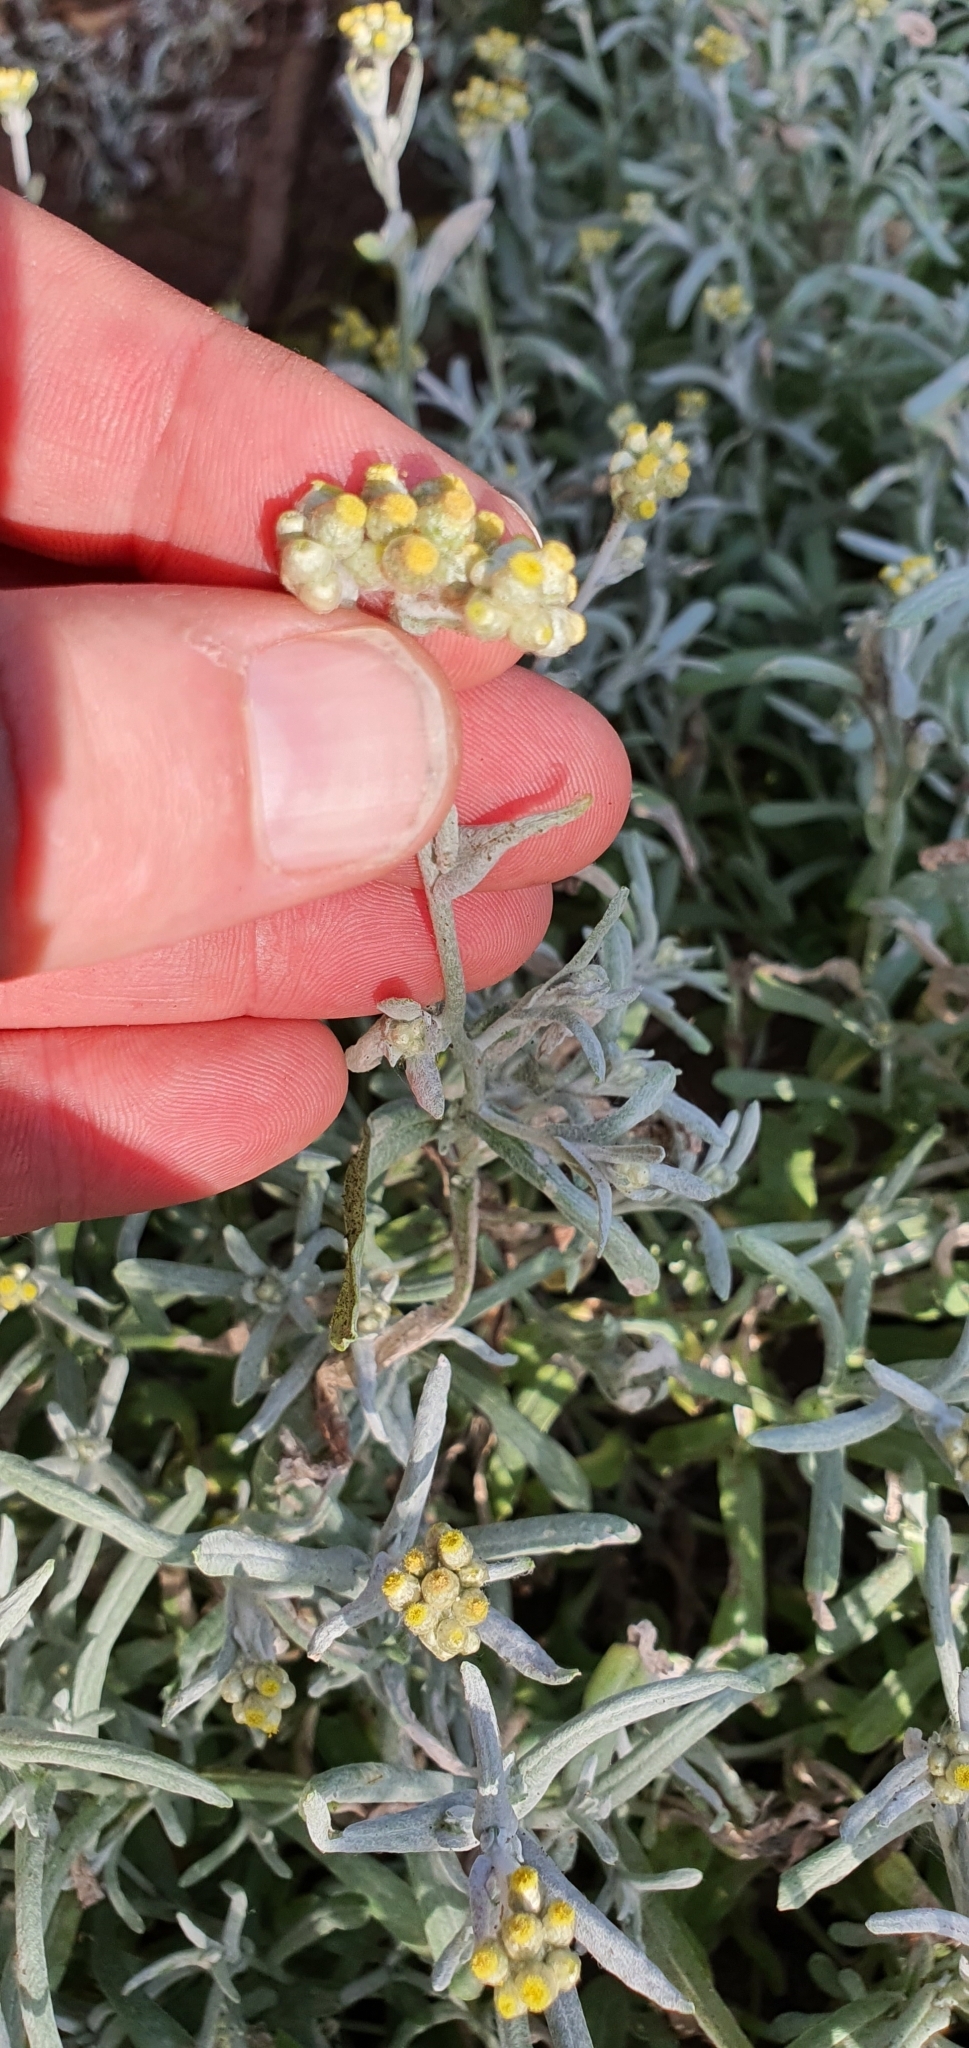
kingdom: Plantae
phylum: Tracheophyta
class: Magnoliopsida
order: Asterales
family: Asteraceae
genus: Helichrysum
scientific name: Helichrysum luteoalbum
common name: Daisy
